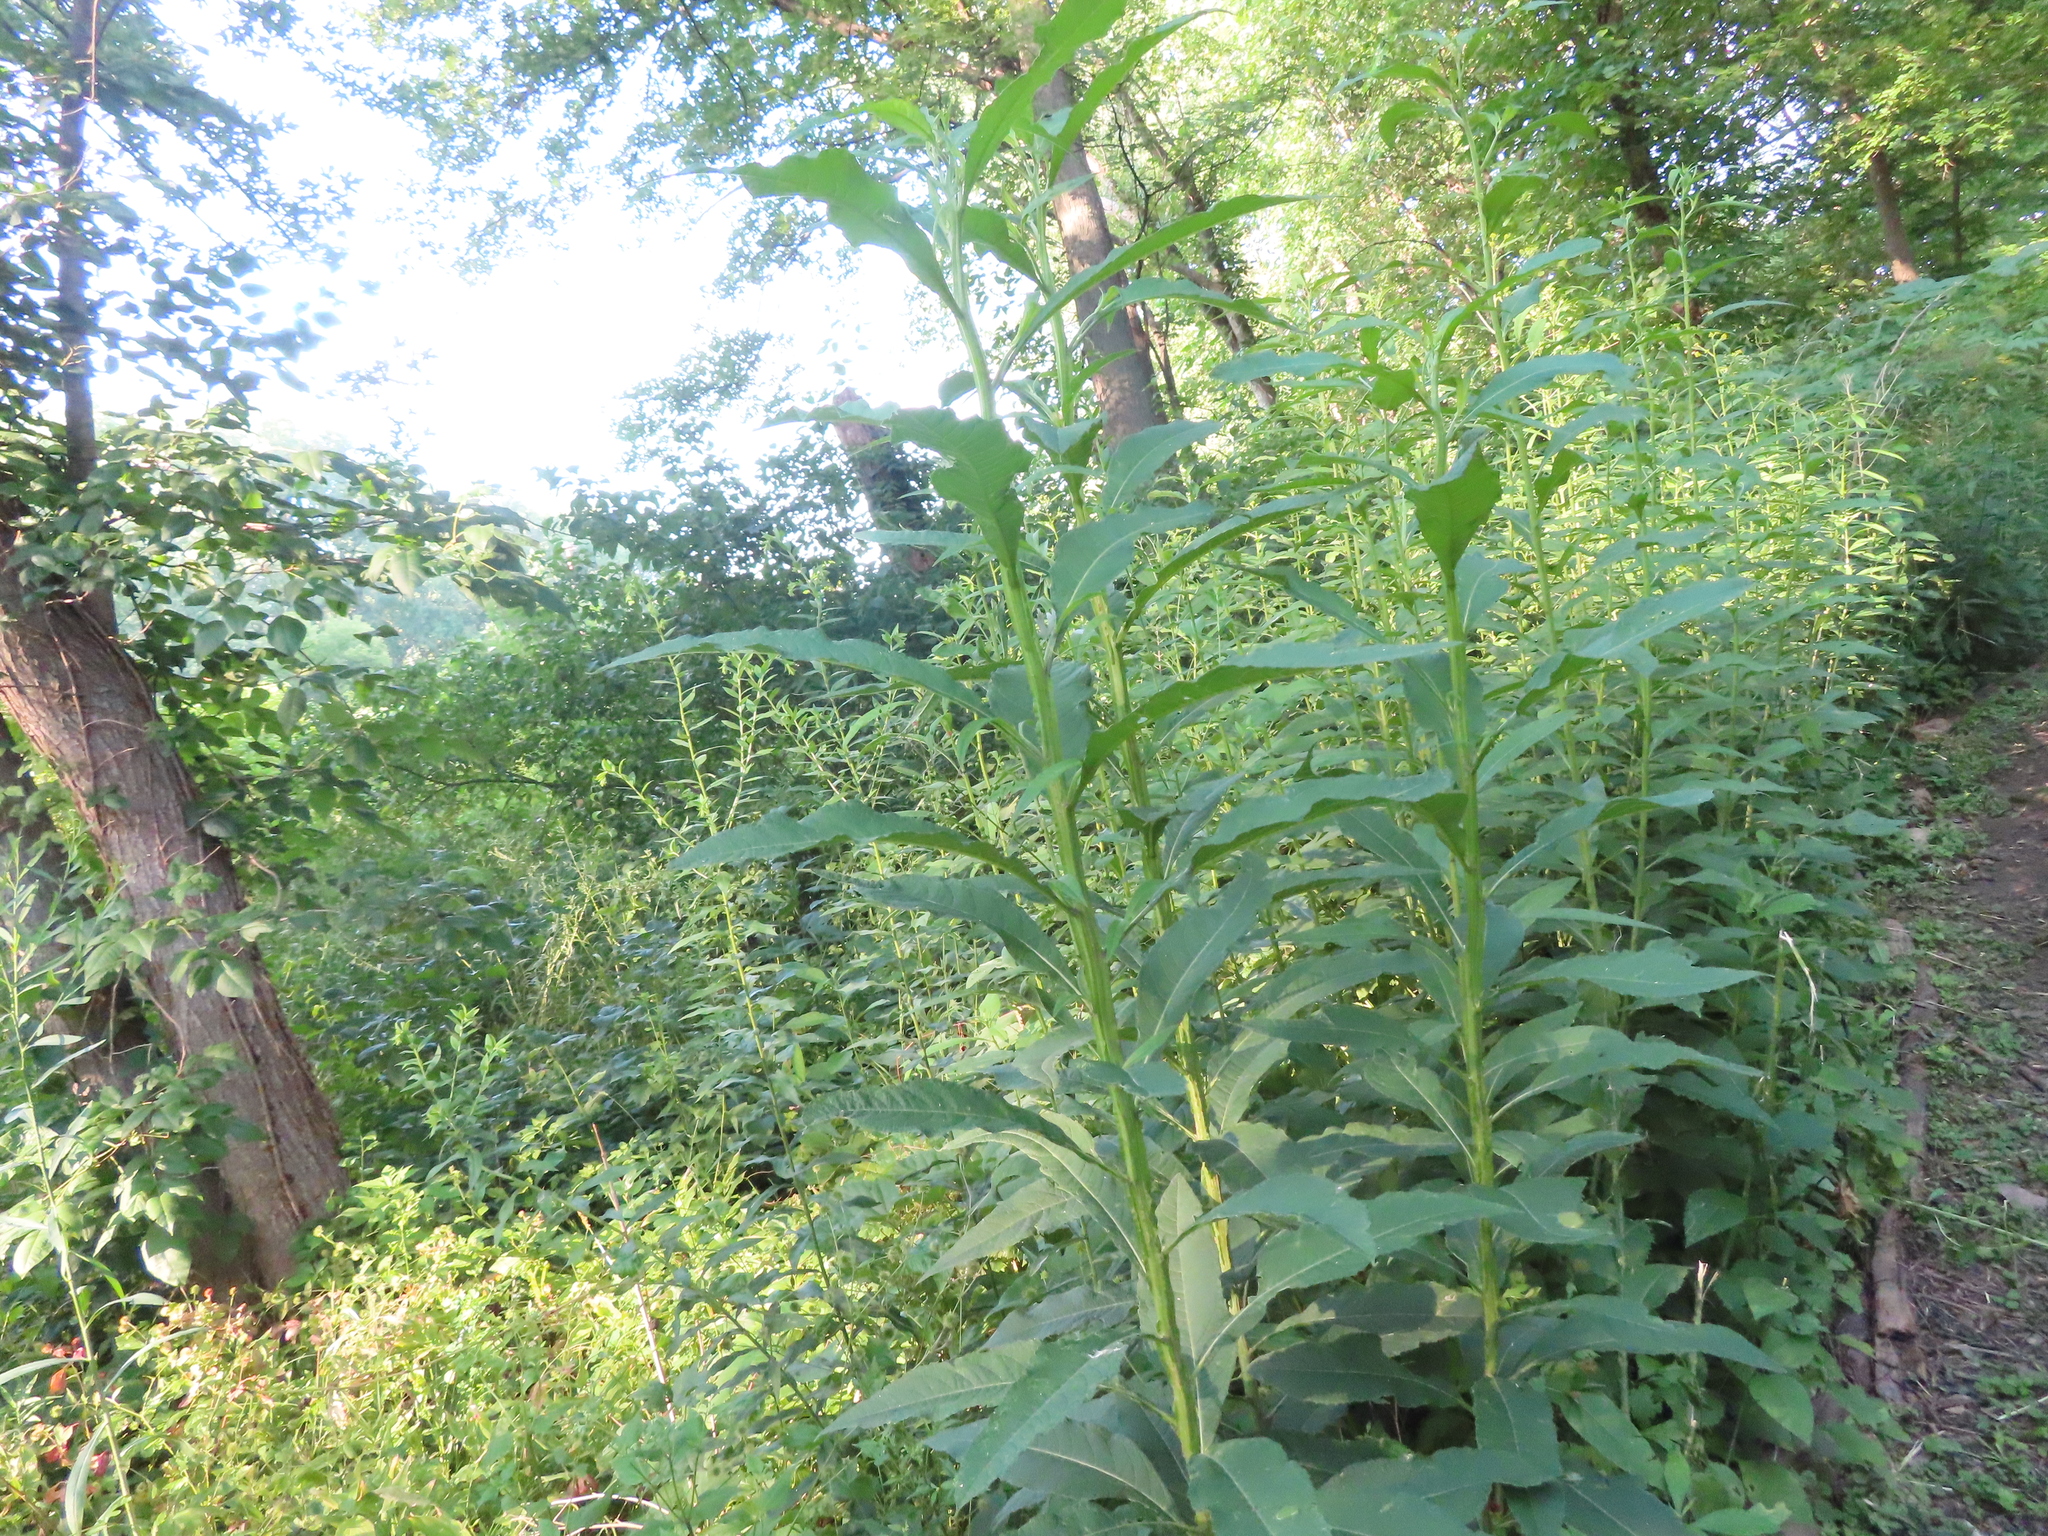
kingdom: Plantae
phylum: Tracheophyta
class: Magnoliopsida
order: Asterales
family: Asteraceae
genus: Verbesina
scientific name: Verbesina alternifolia
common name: Wingstem
